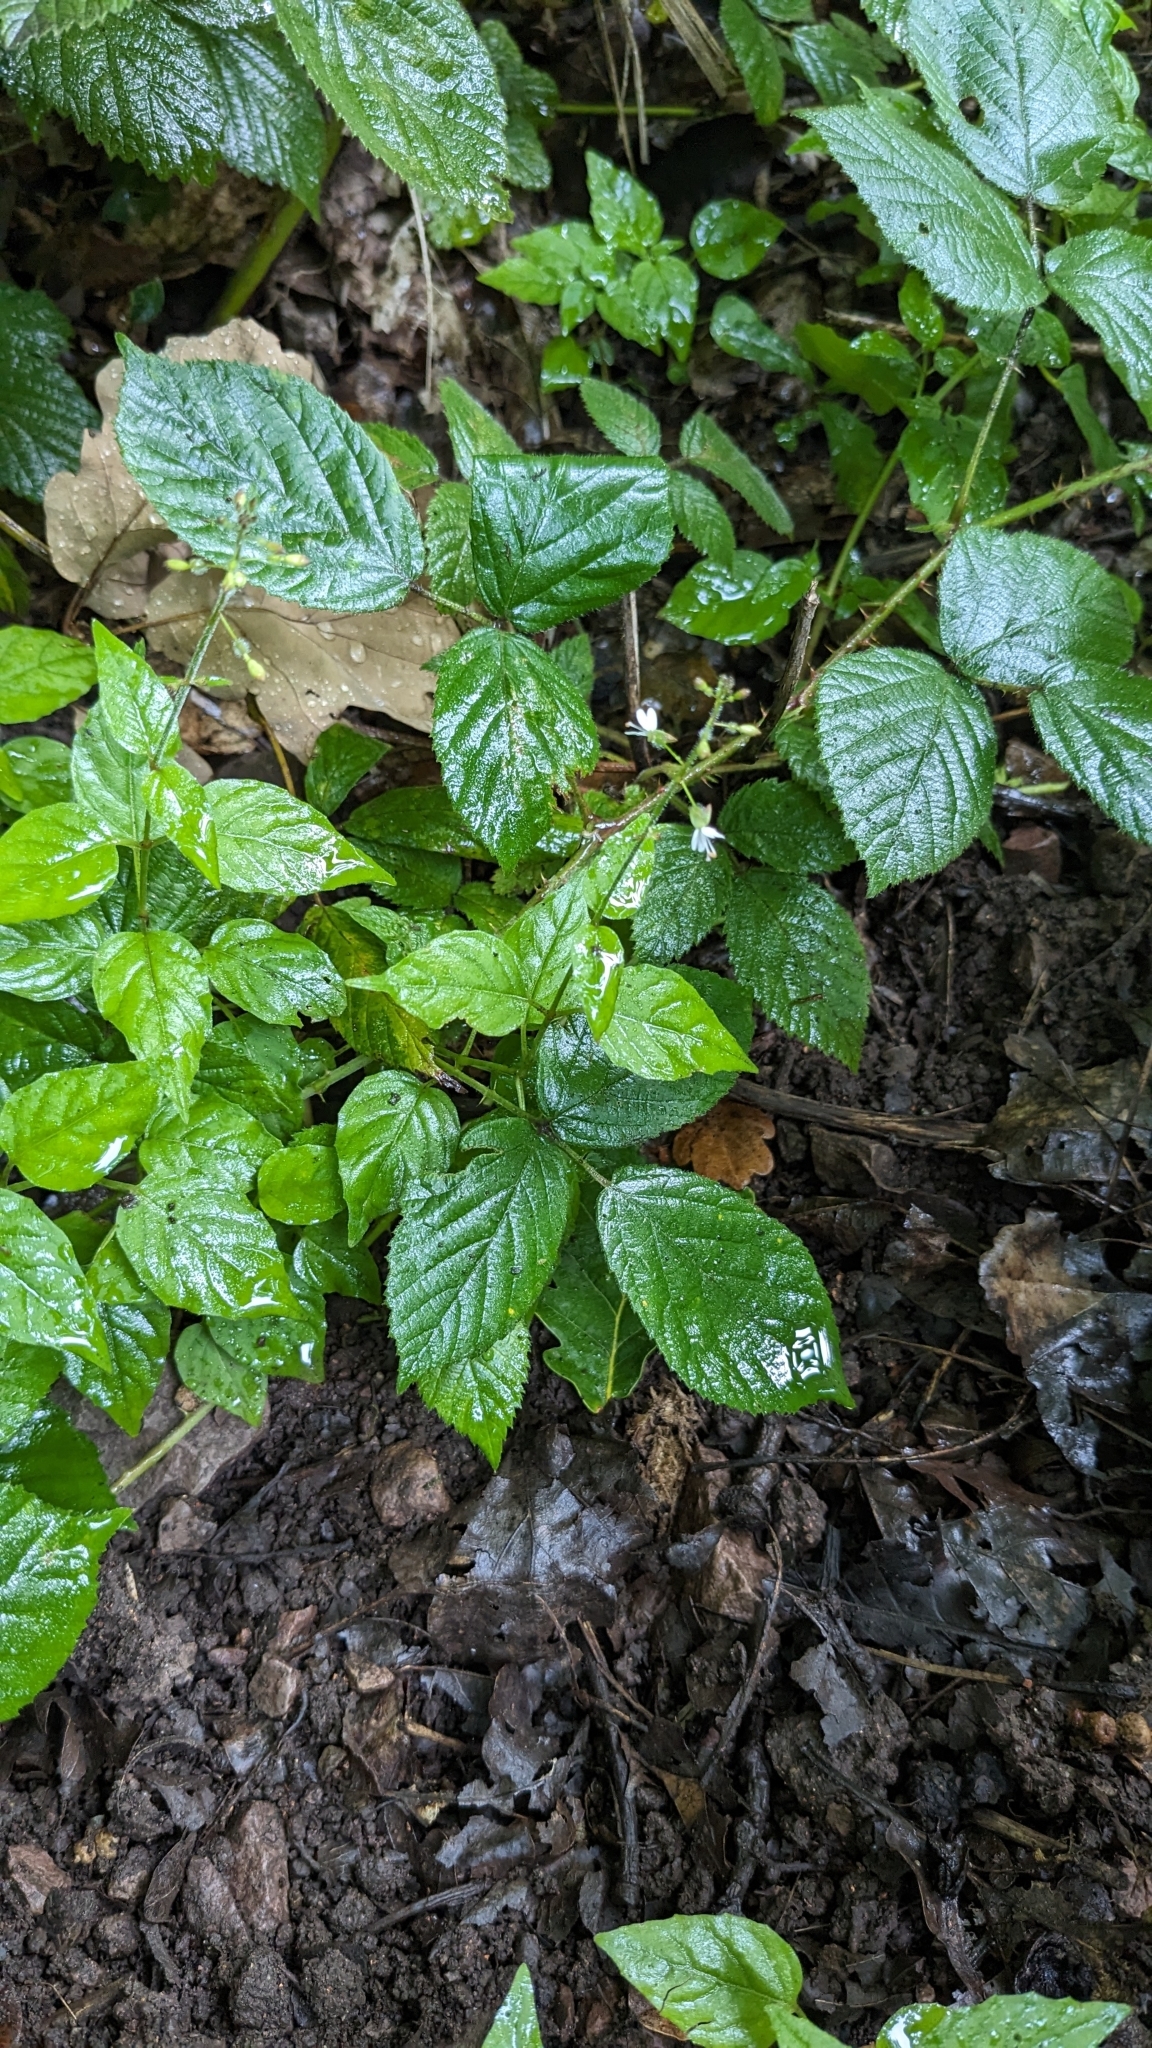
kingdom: Plantae
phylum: Tracheophyta
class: Magnoliopsida
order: Myrtales
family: Onagraceae
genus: Circaea
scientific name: Circaea lutetiana
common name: Enchanter's-nightshade
